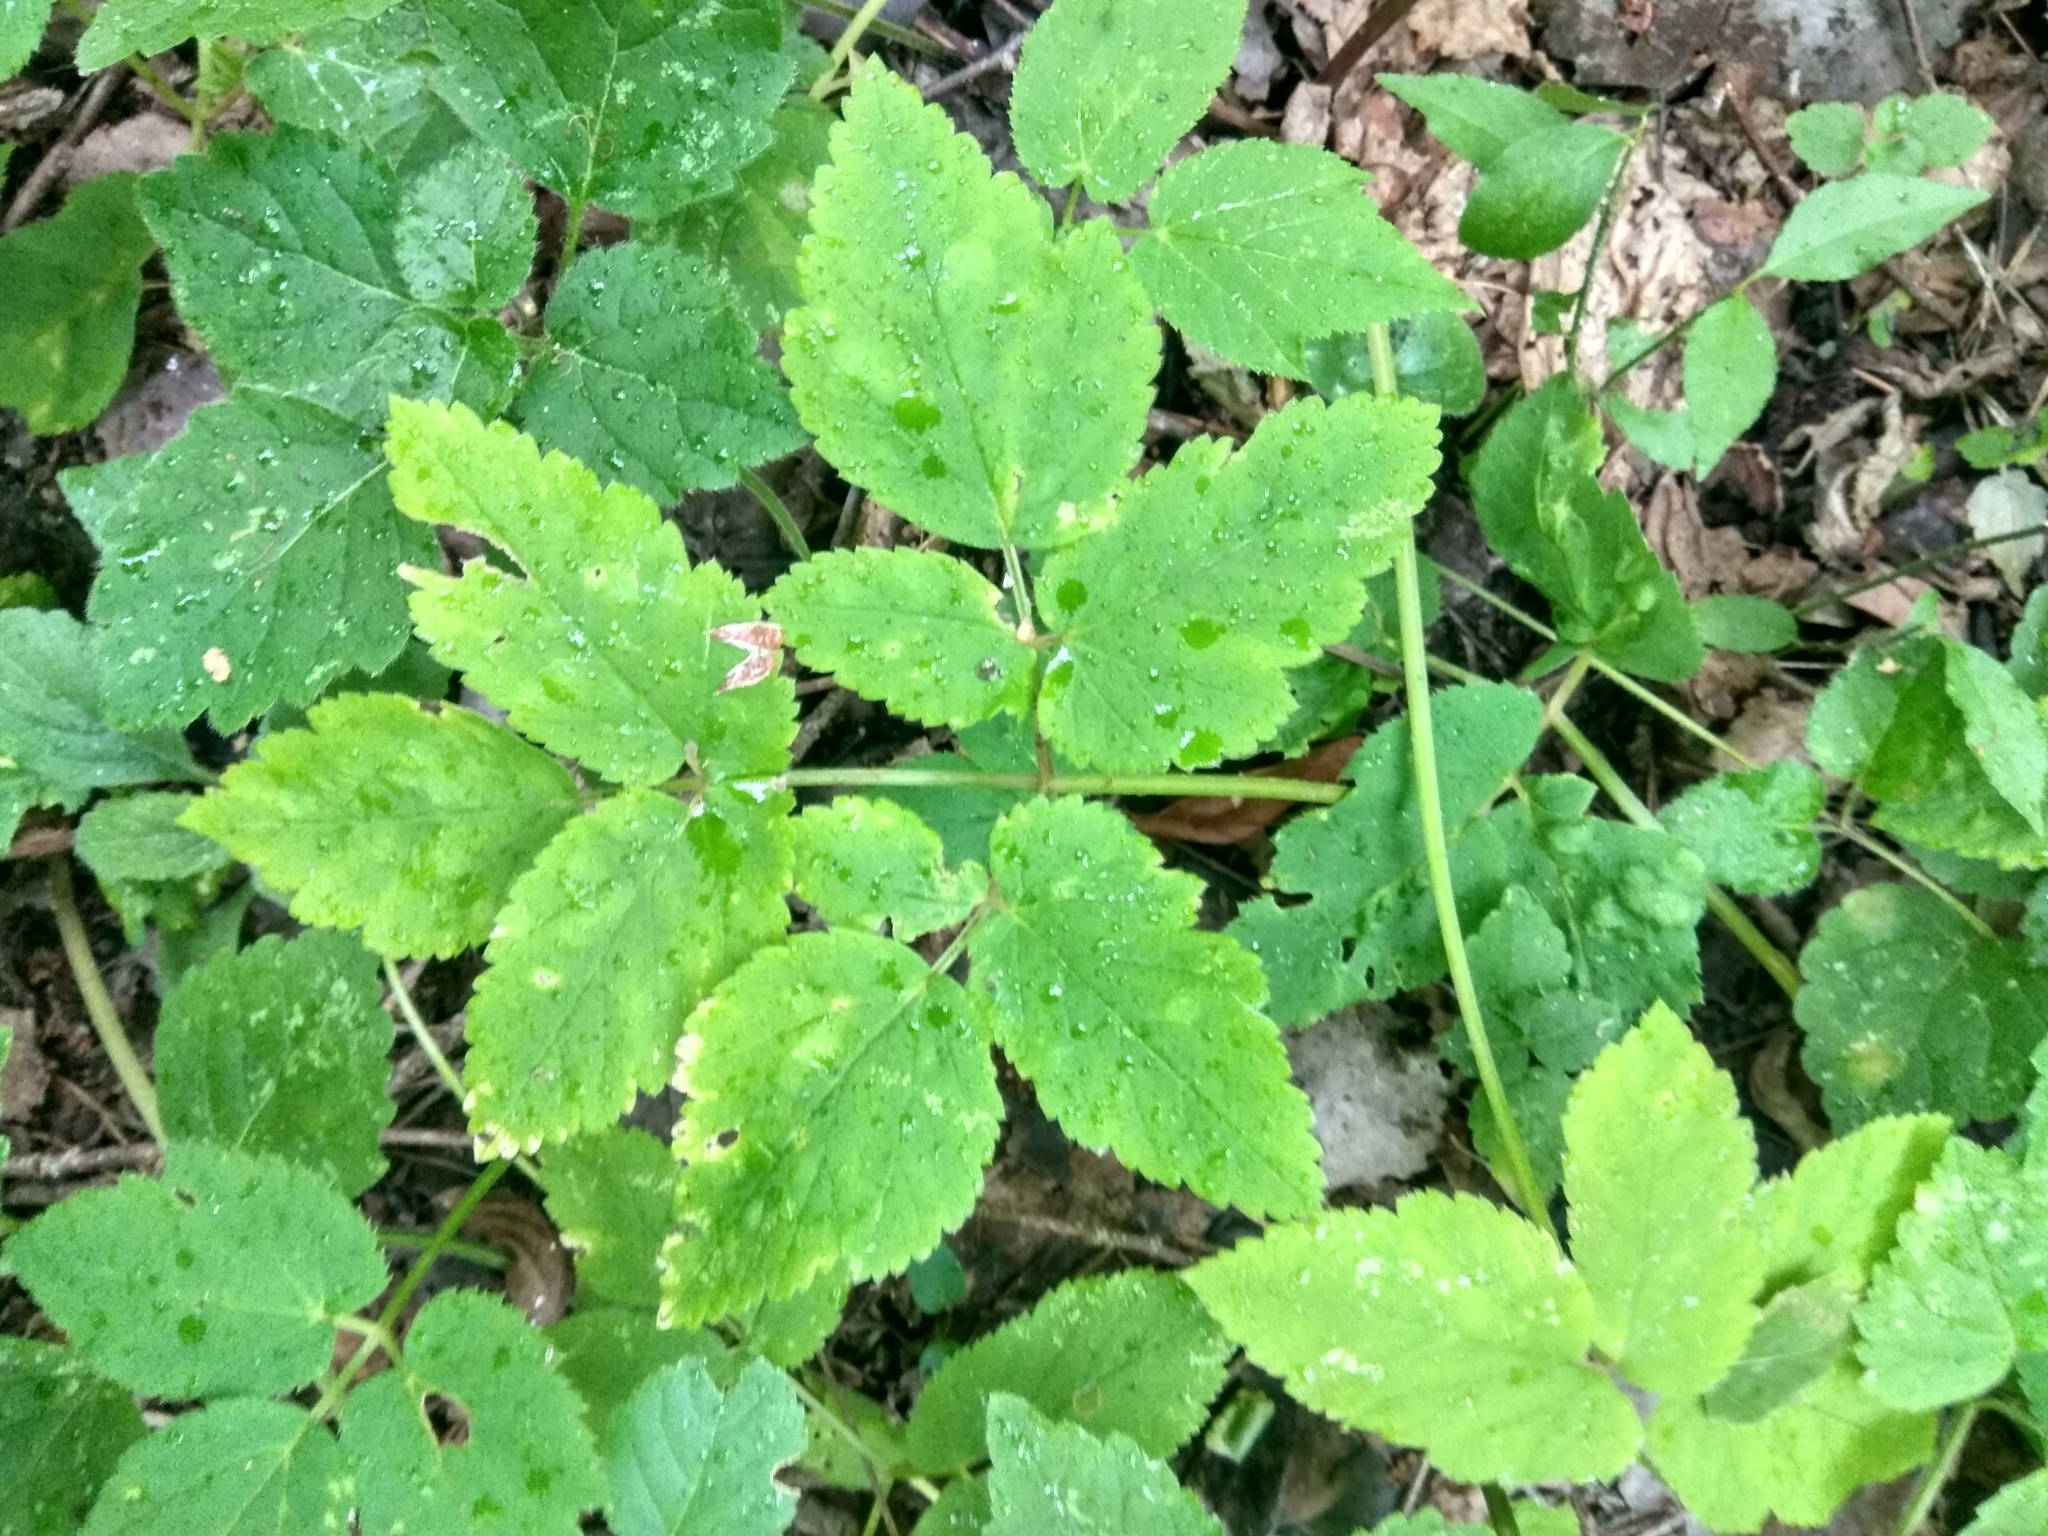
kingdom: Plantae
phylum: Tracheophyta
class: Magnoliopsida
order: Apiales
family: Apiaceae
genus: Aegopodium
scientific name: Aegopodium podagraria
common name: Ground-elder
